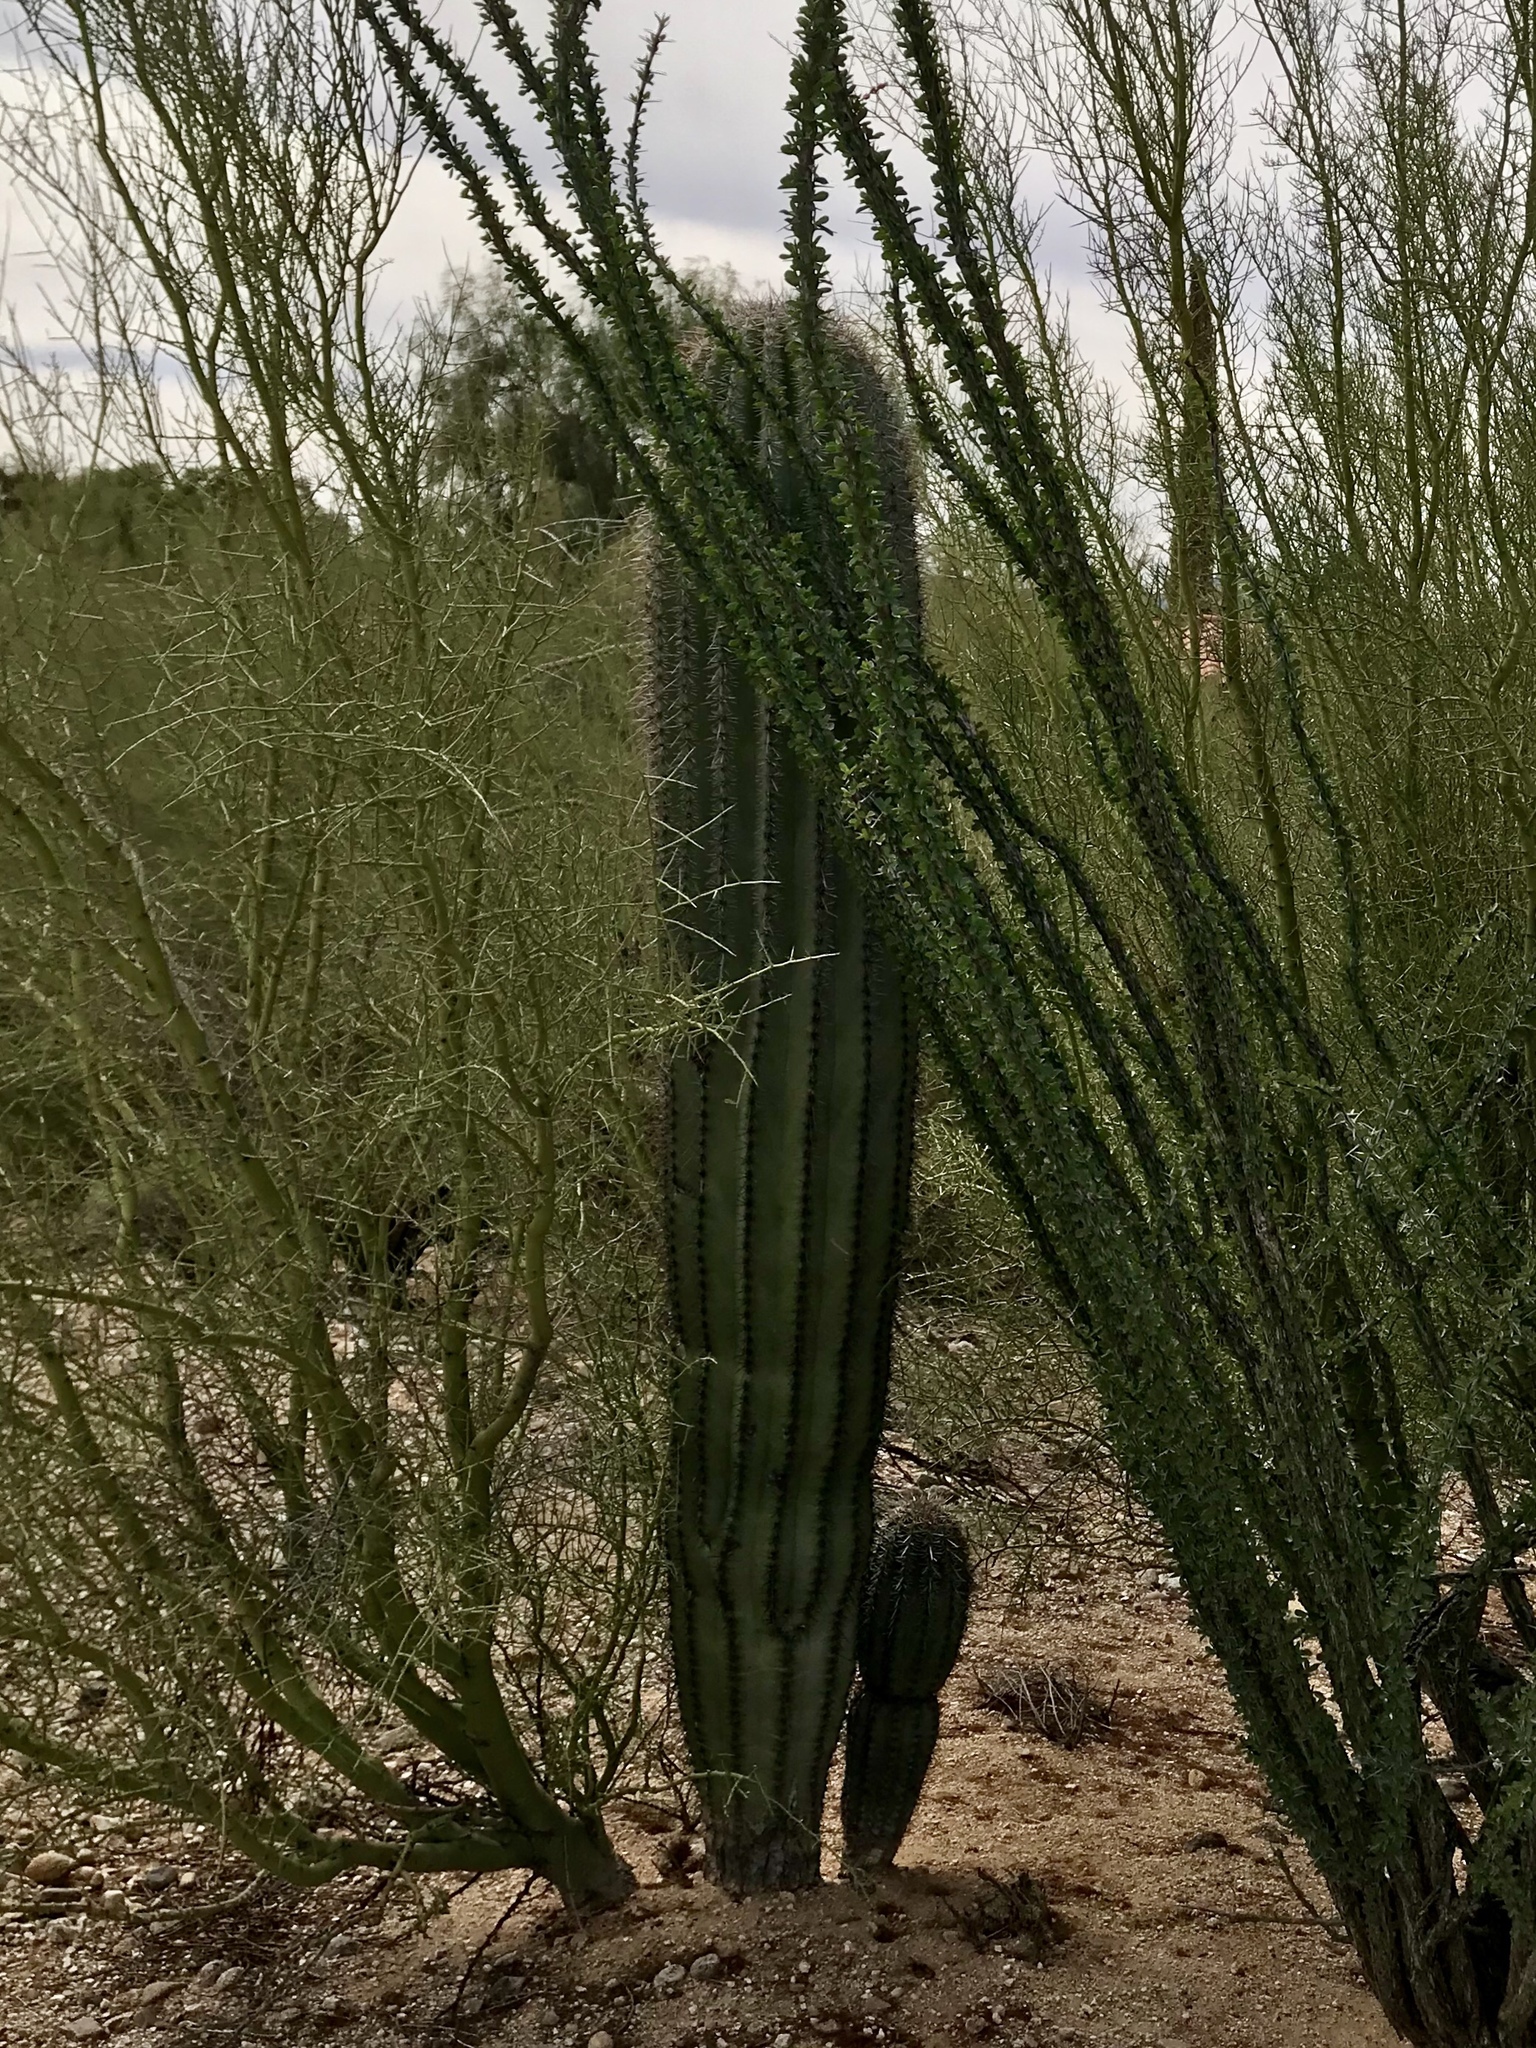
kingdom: Plantae
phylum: Tracheophyta
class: Magnoliopsida
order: Caryophyllales
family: Cactaceae
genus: Carnegiea
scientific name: Carnegiea gigantea
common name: Saguaro
